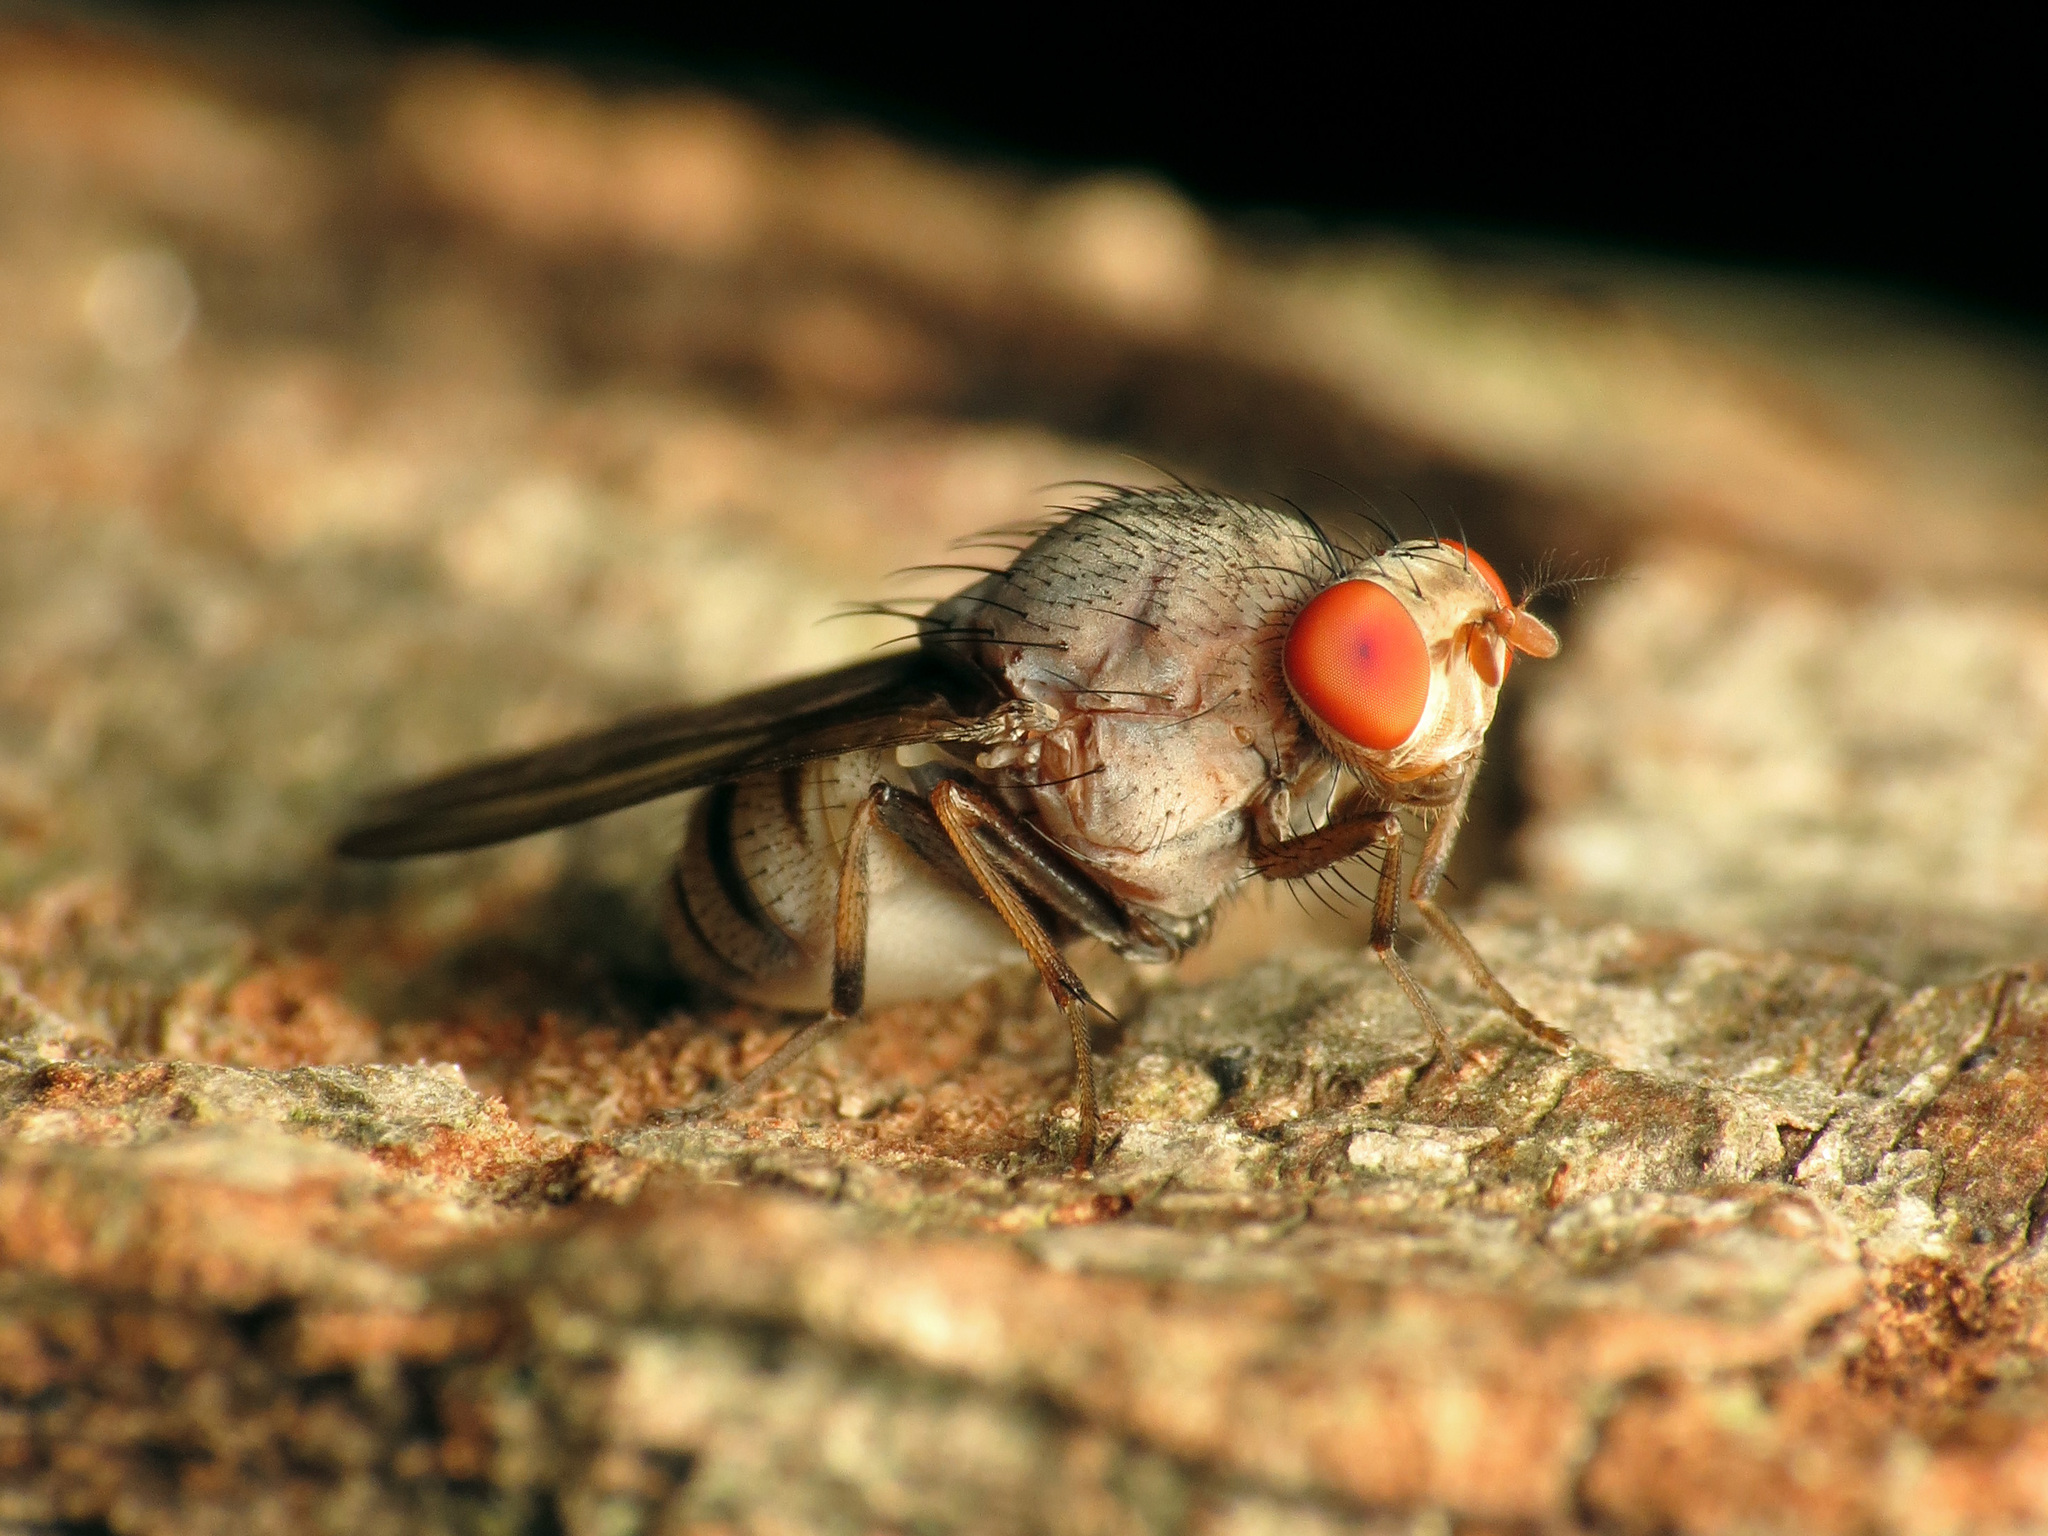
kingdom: Animalia
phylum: Arthropoda
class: Insecta
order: Diptera
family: Lauxaniidae
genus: Minettia
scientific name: Minettia magna
